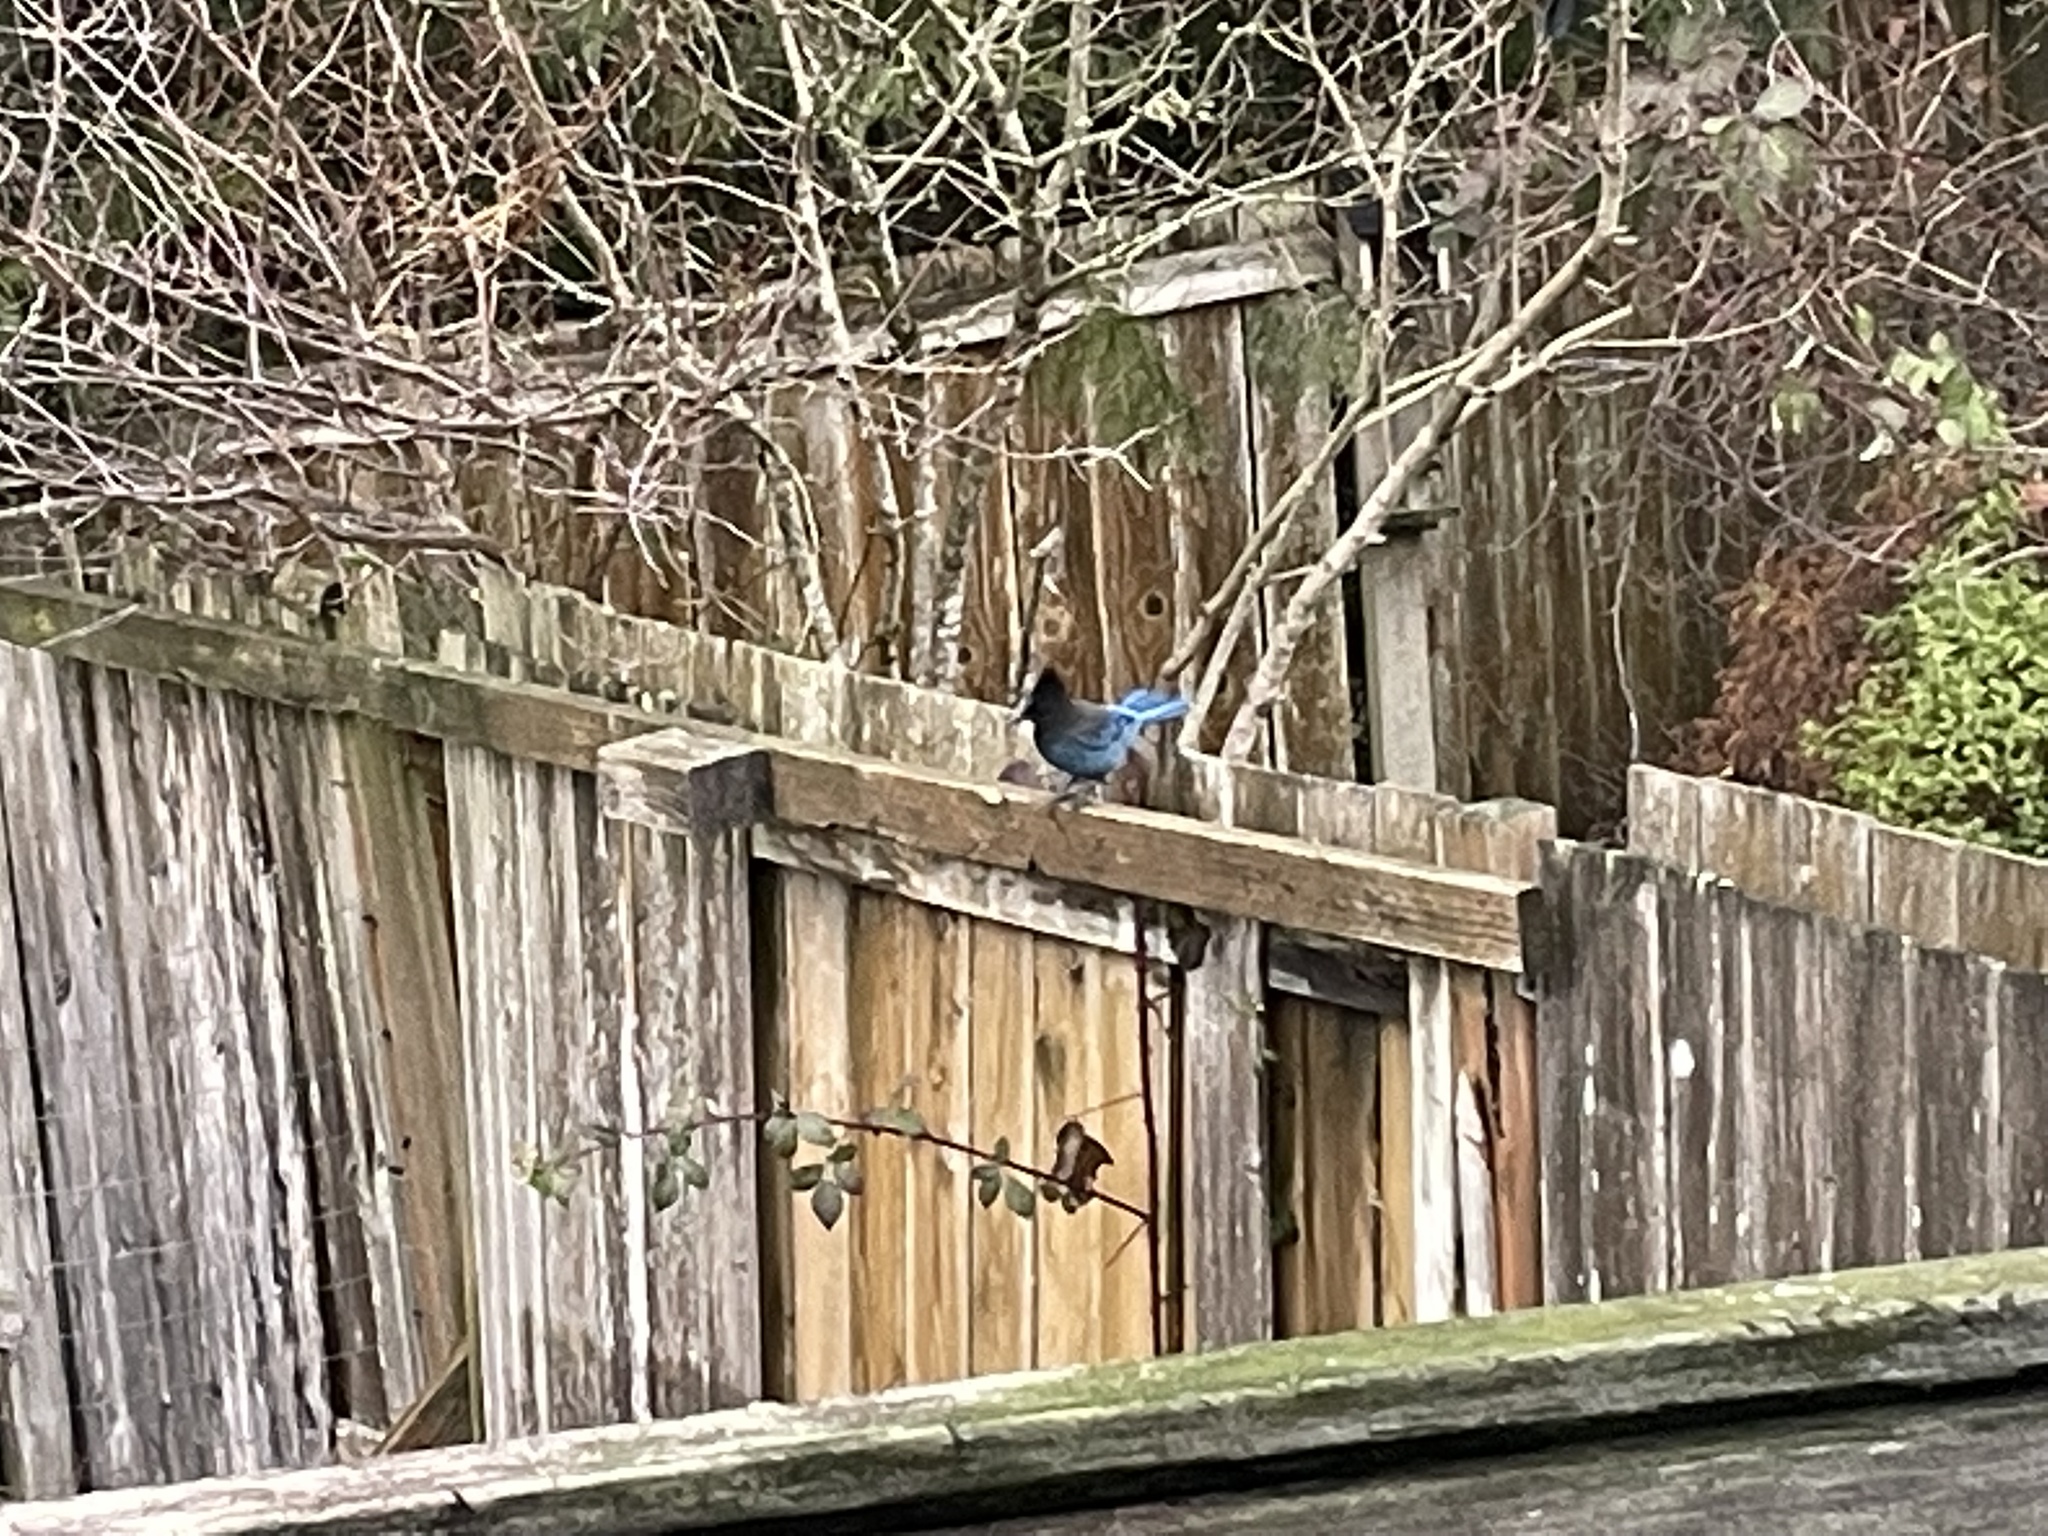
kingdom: Animalia
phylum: Chordata
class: Aves
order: Passeriformes
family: Corvidae
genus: Cyanocitta
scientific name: Cyanocitta stelleri
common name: Steller's jay
